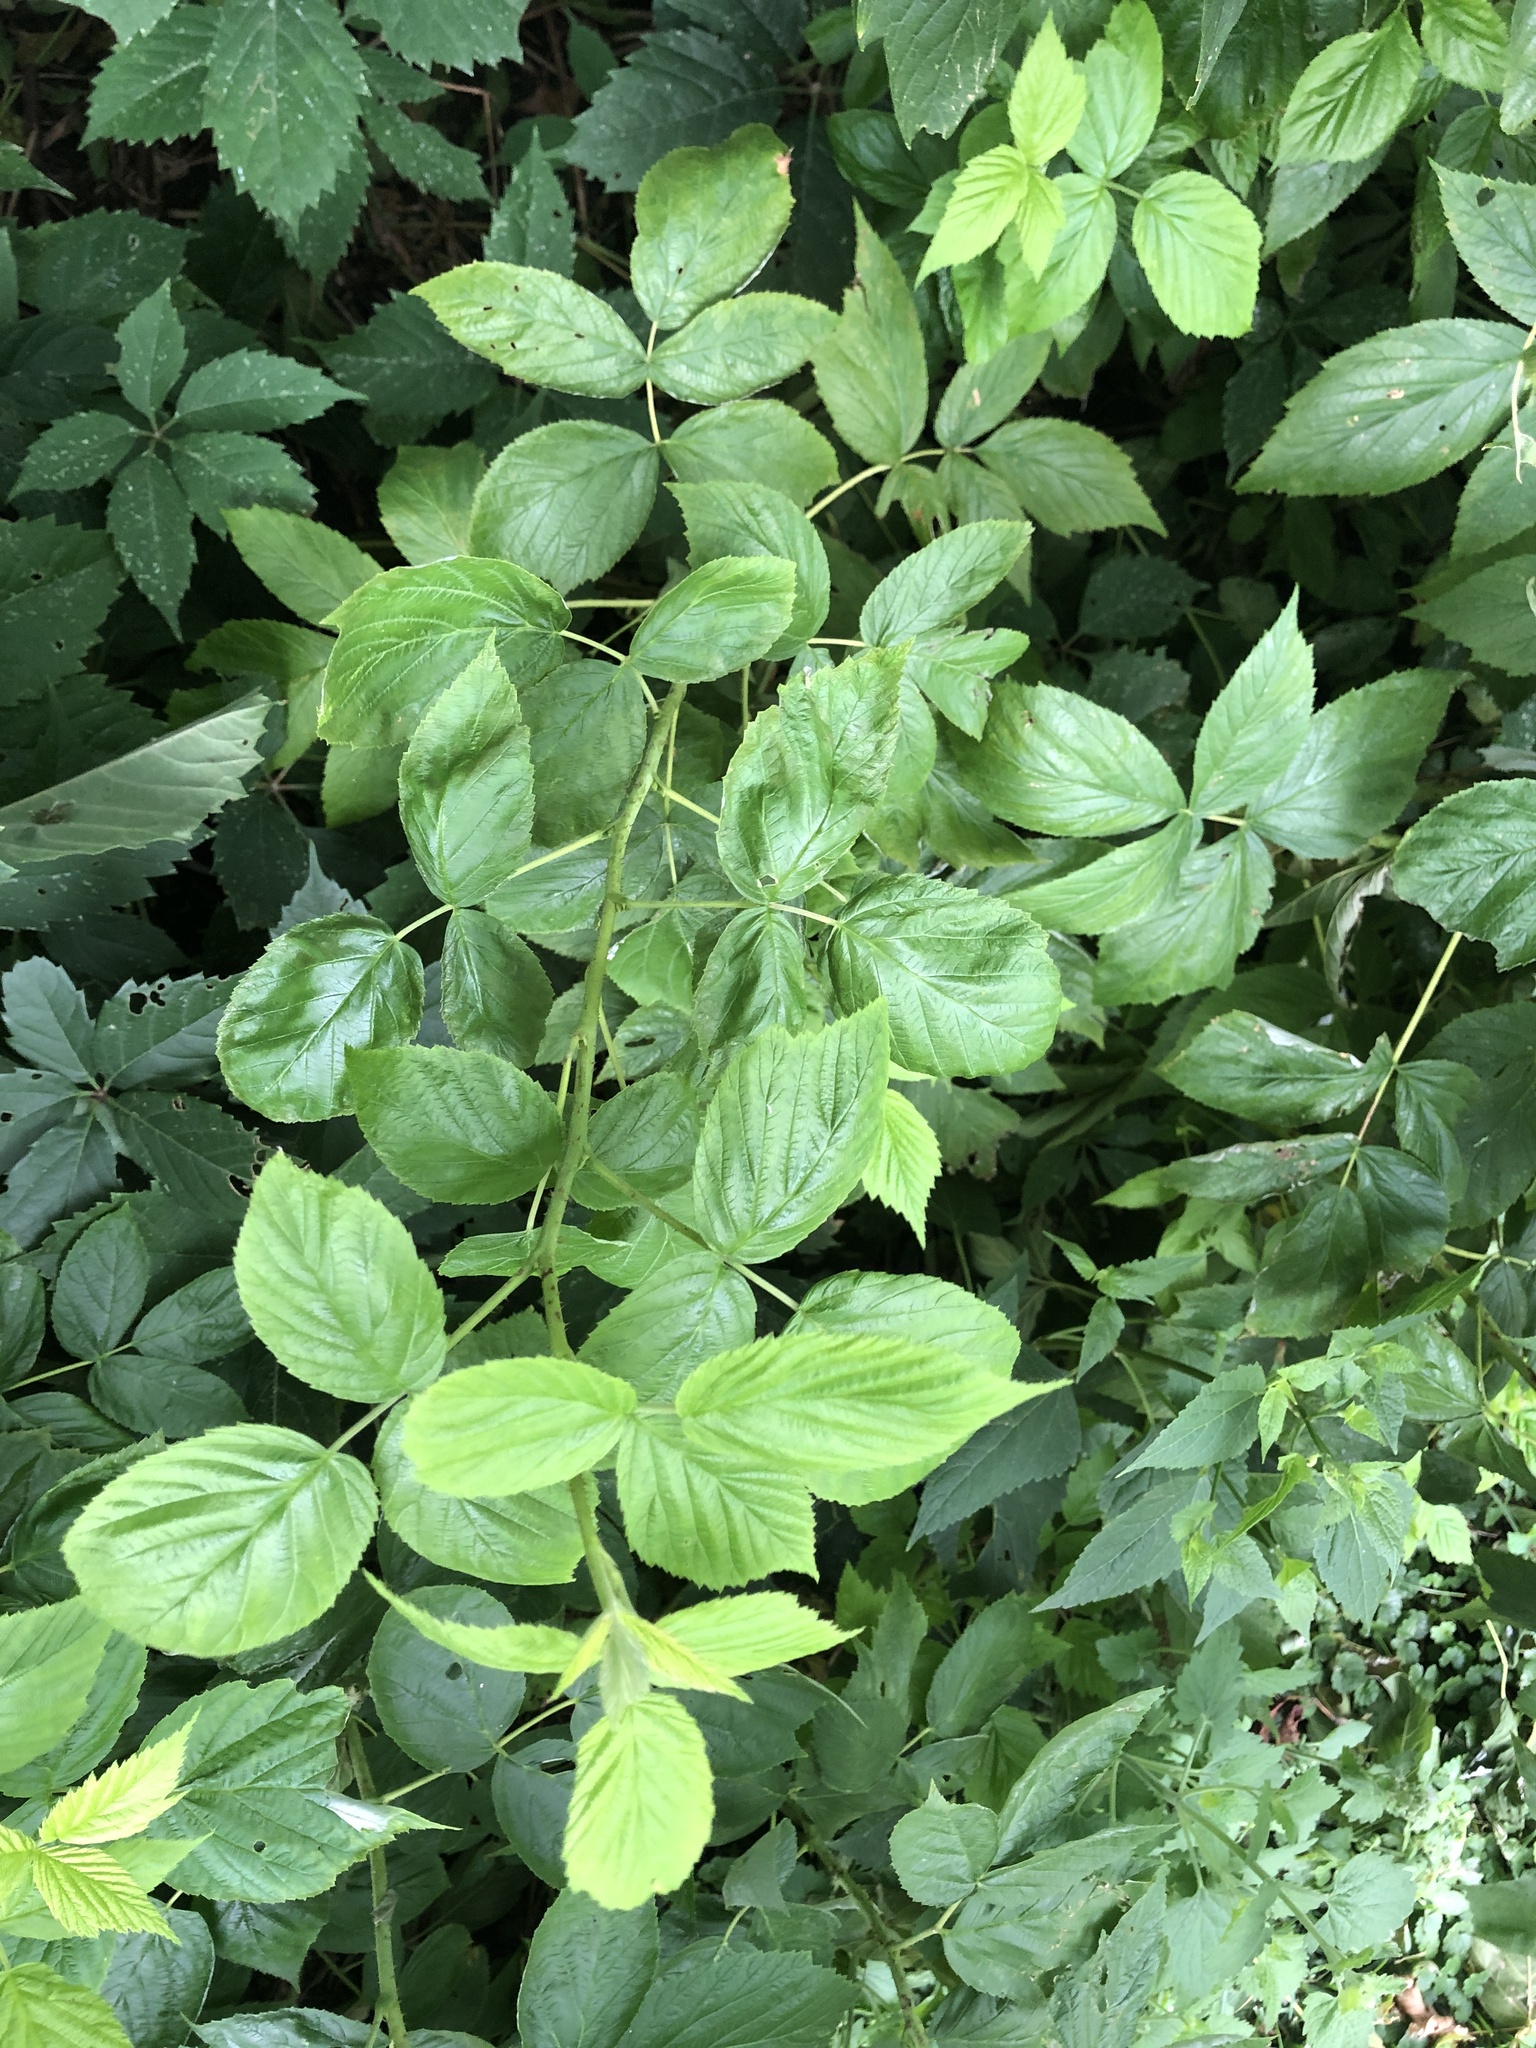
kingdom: Plantae
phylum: Tracheophyta
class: Magnoliopsida
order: Rosales
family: Rosaceae
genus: Rubus
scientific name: Rubus idaeus
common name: Raspberry
